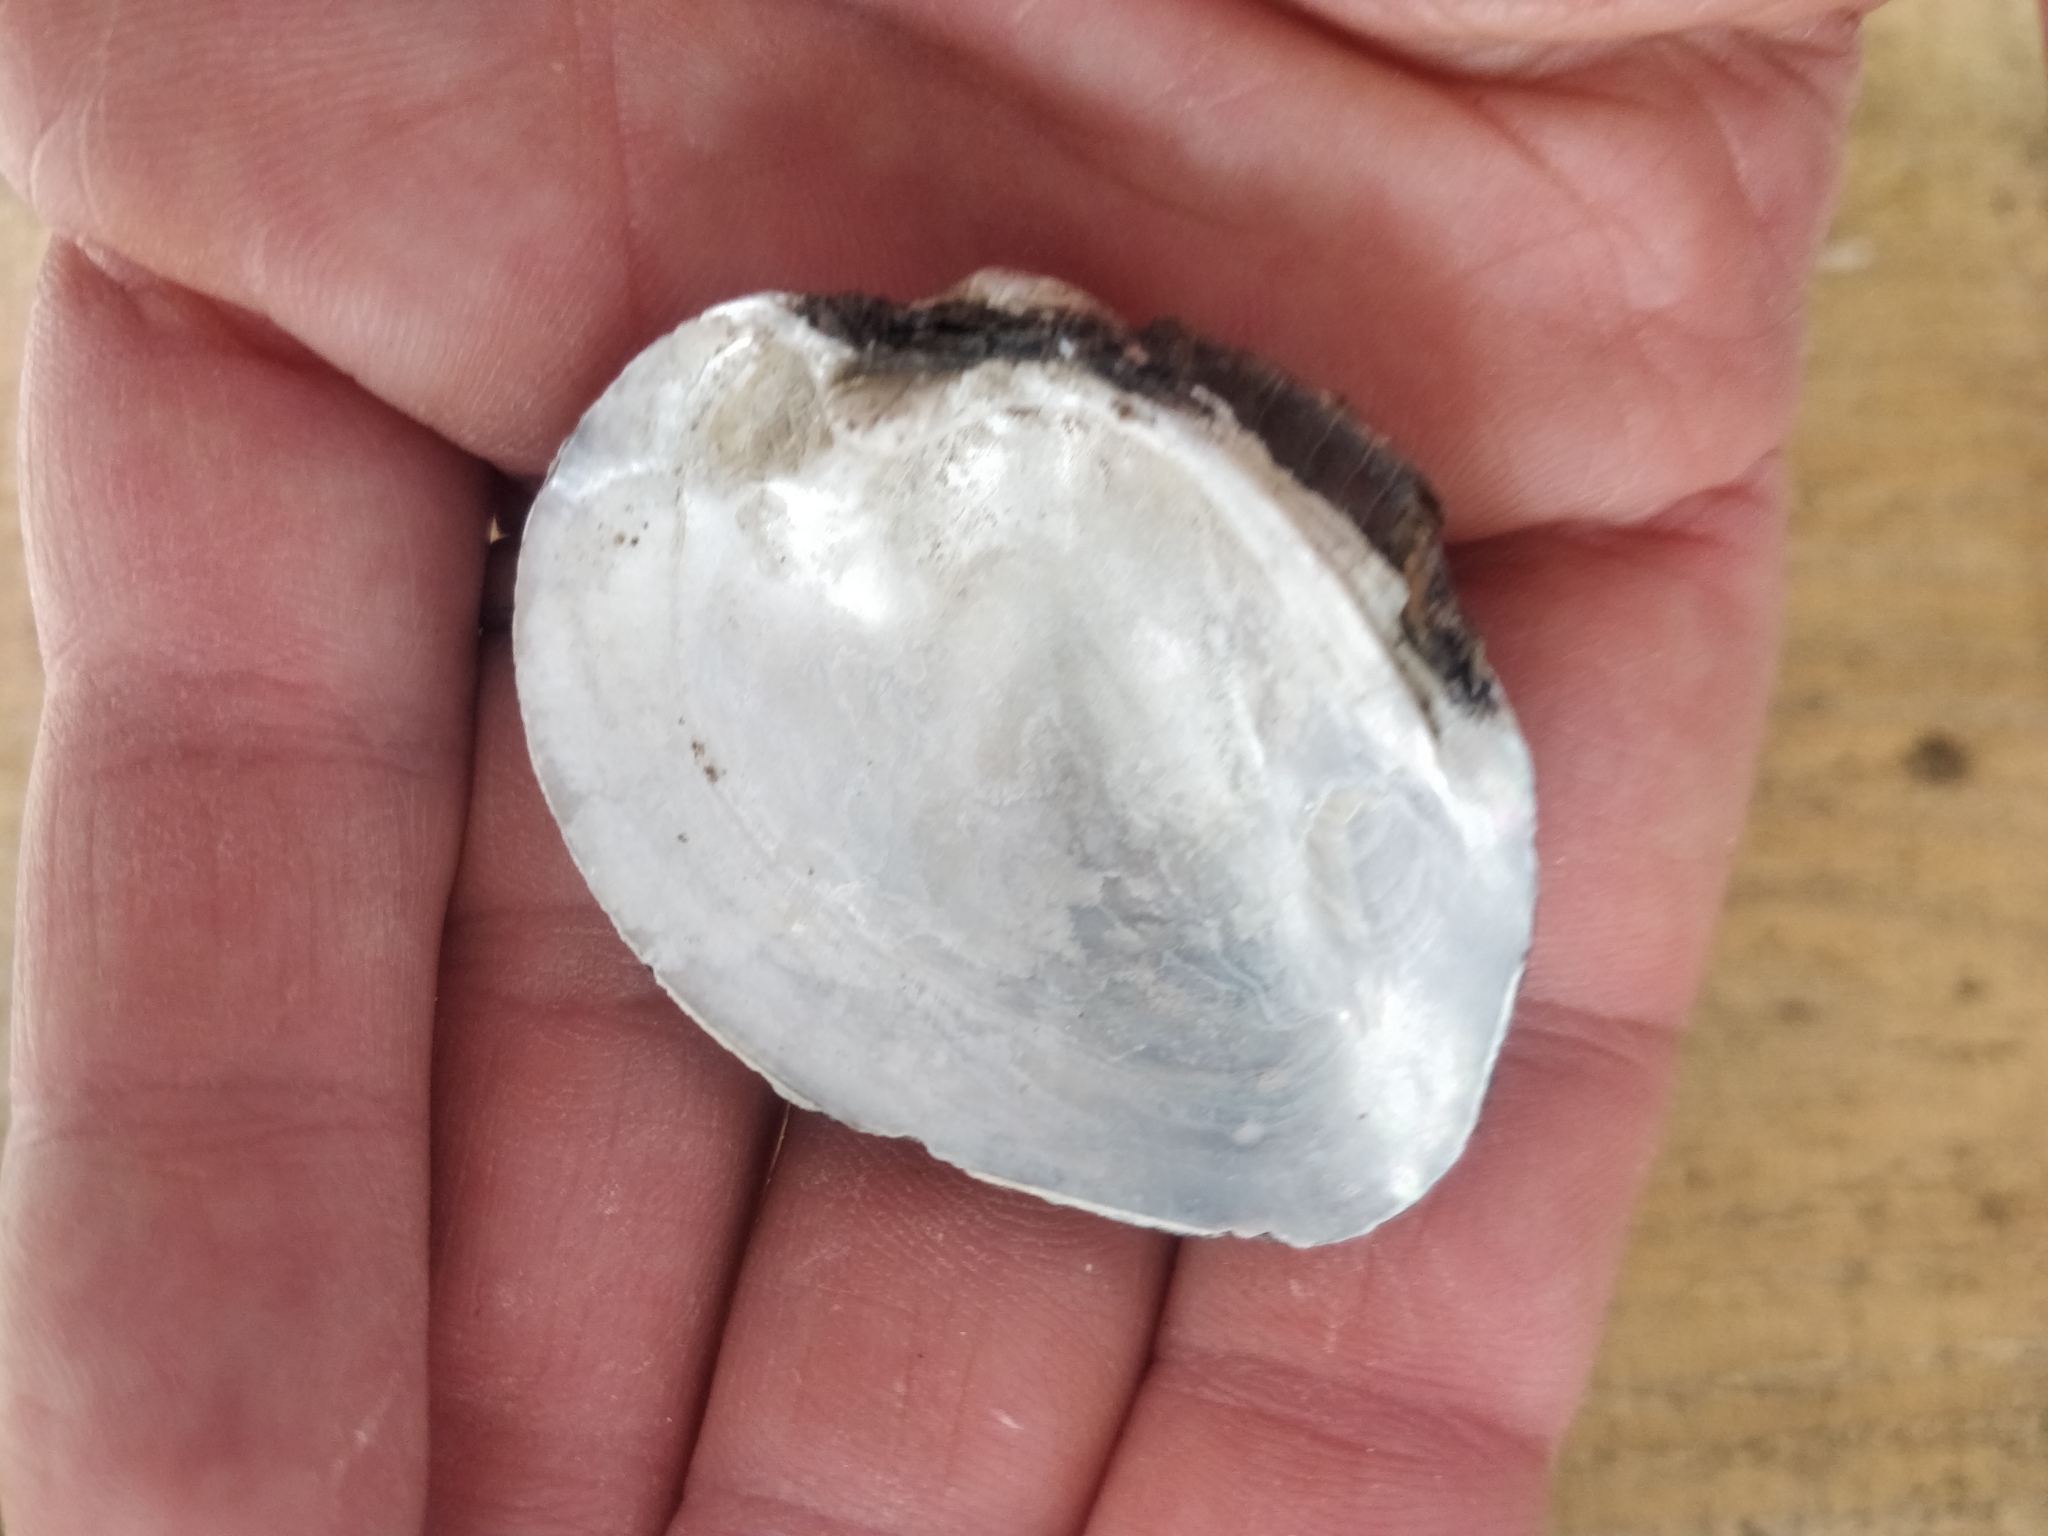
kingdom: Animalia
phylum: Mollusca
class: Bivalvia
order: Unionida
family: Unionidae
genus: Fusconaia
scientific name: Fusconaia flava
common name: Wabash pigtoe
